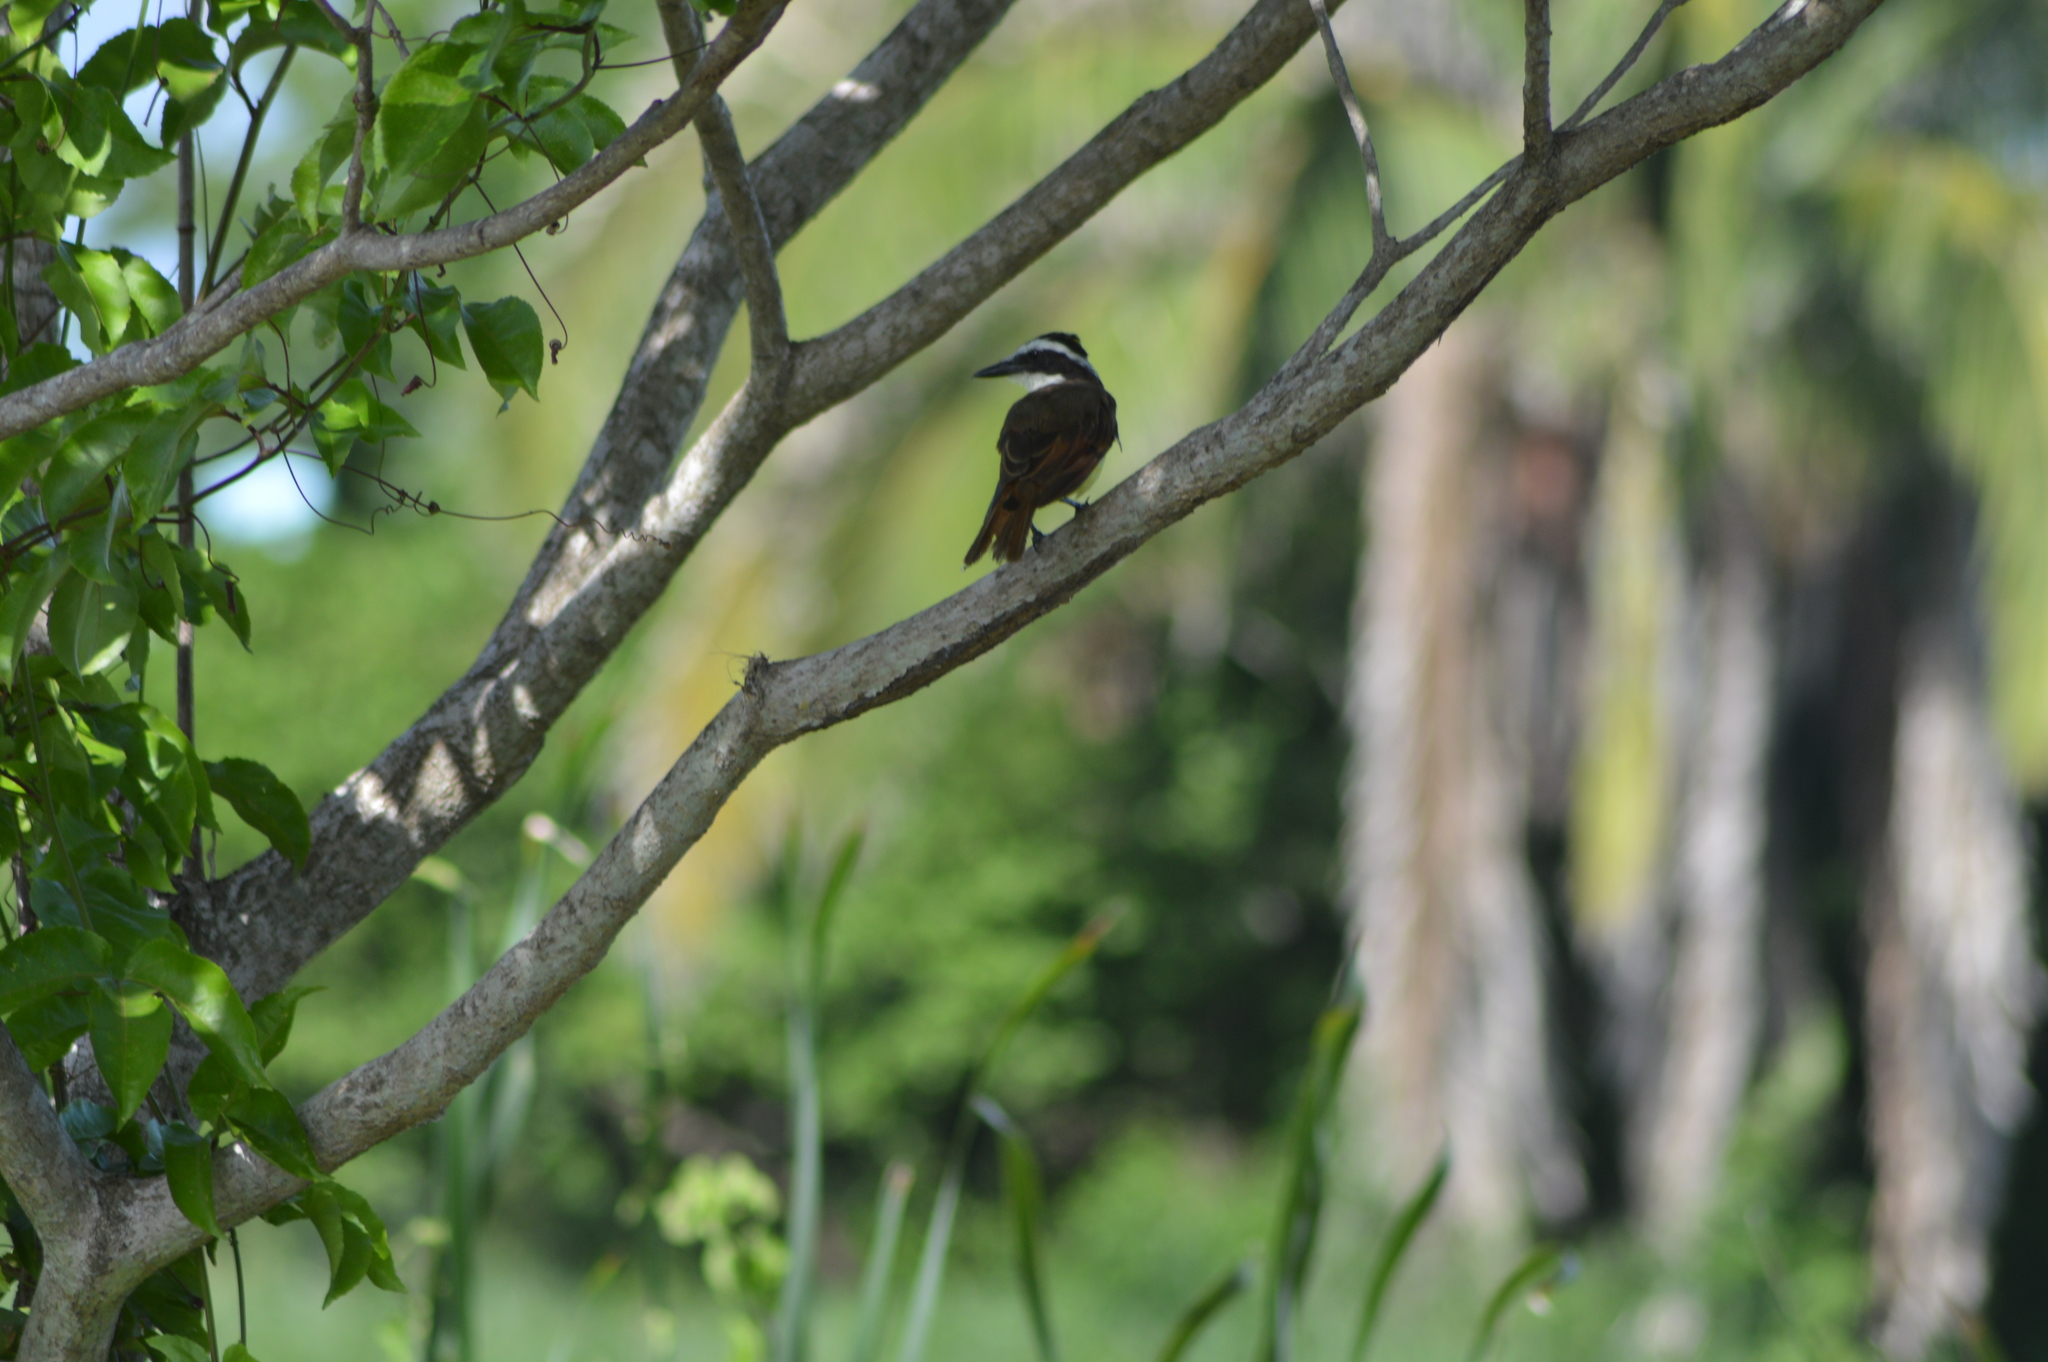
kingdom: Animalia
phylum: Chordata
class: Aves
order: Passeriformes
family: Tyrannidae
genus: Pitangus
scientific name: Pitangus sulphuratus
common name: Great kiskadee
